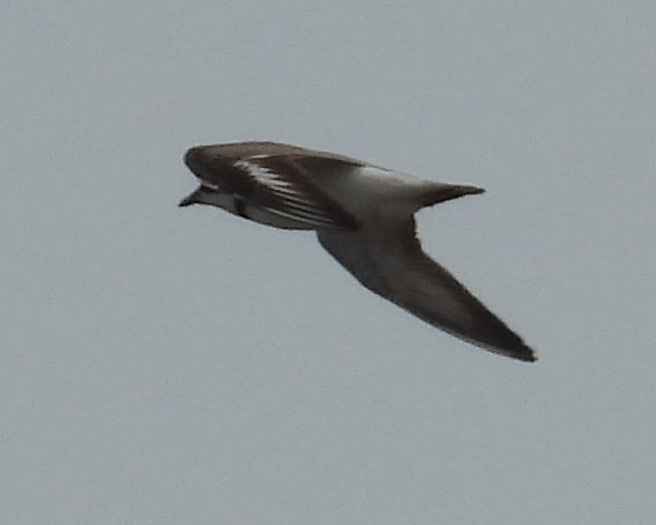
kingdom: Animalia
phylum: Chordata
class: Aves
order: Charadriiformes
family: Charadriidae
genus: Charadrius
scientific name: Charadrius semipalmatus
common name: Semipalmated plover
